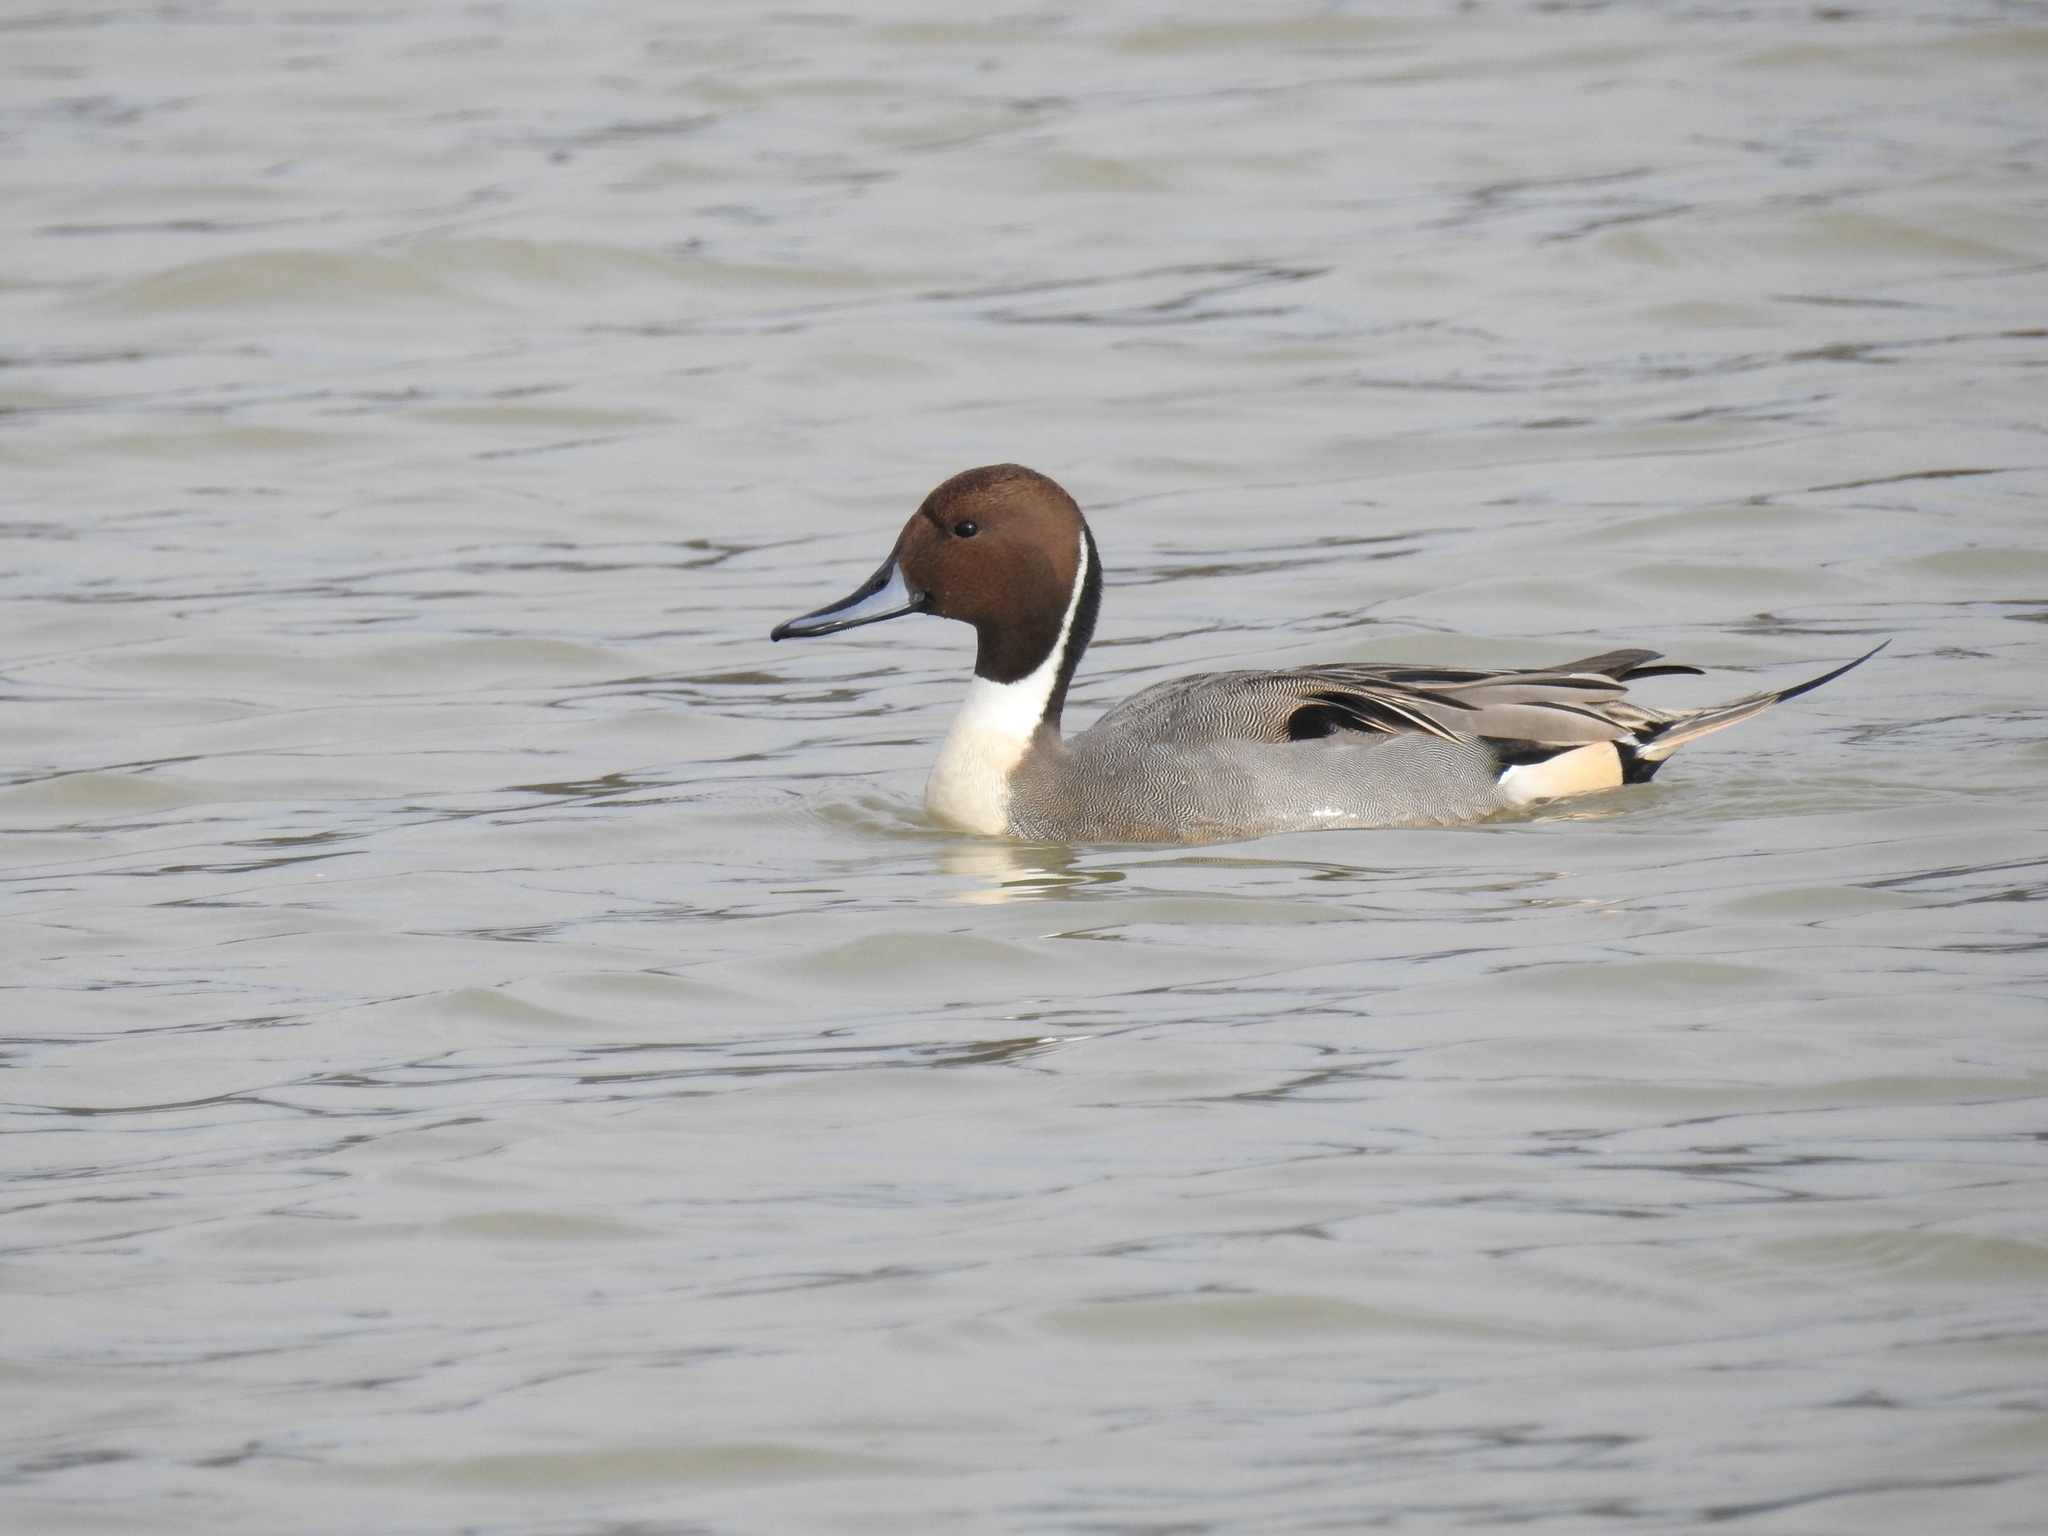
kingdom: Animalia
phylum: Chordata
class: Aves
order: Anseriformes
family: Anatidae
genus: Anas
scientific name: Anas acuta
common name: Northern pintail
